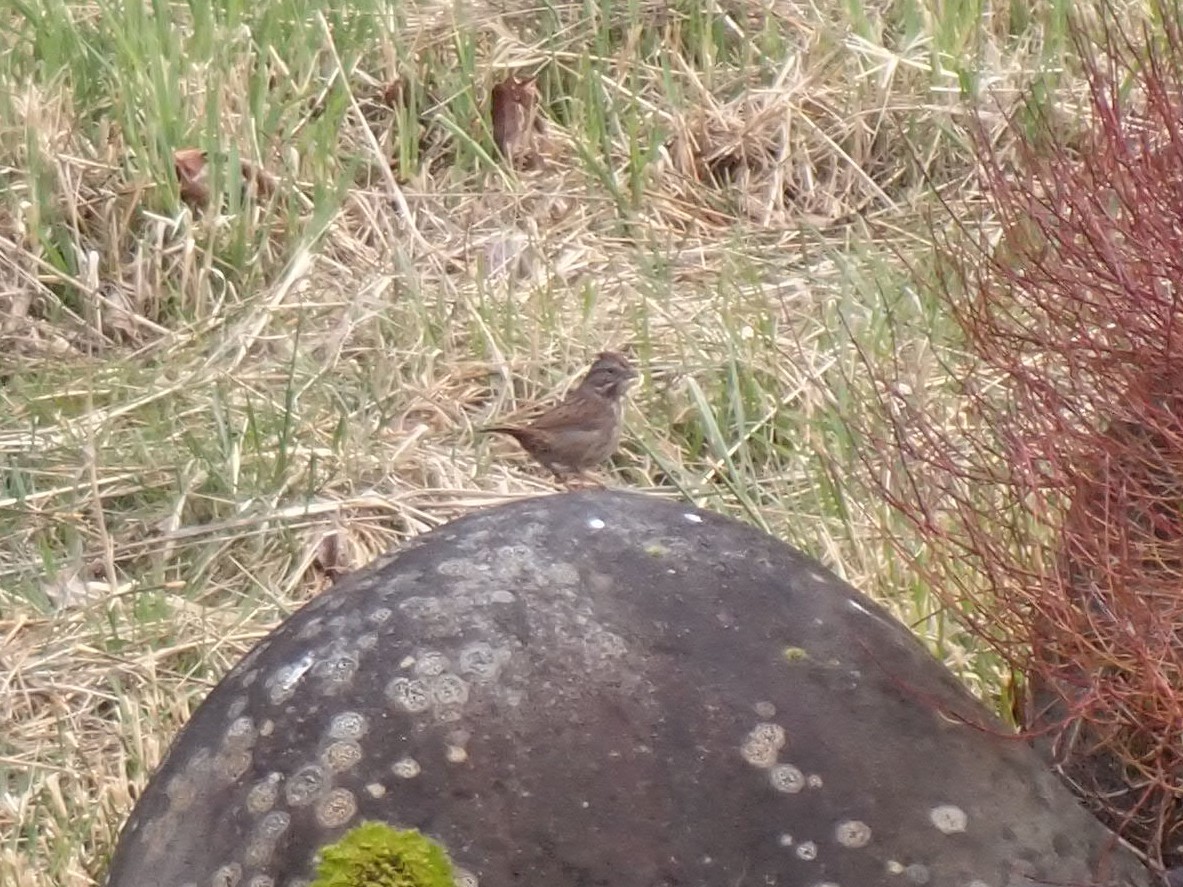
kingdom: Animalia
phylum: Chordata
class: Aves
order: Passeriformes
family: Passerellidae
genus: Melospiza
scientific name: Melospiza melodia
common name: Song sparrow
